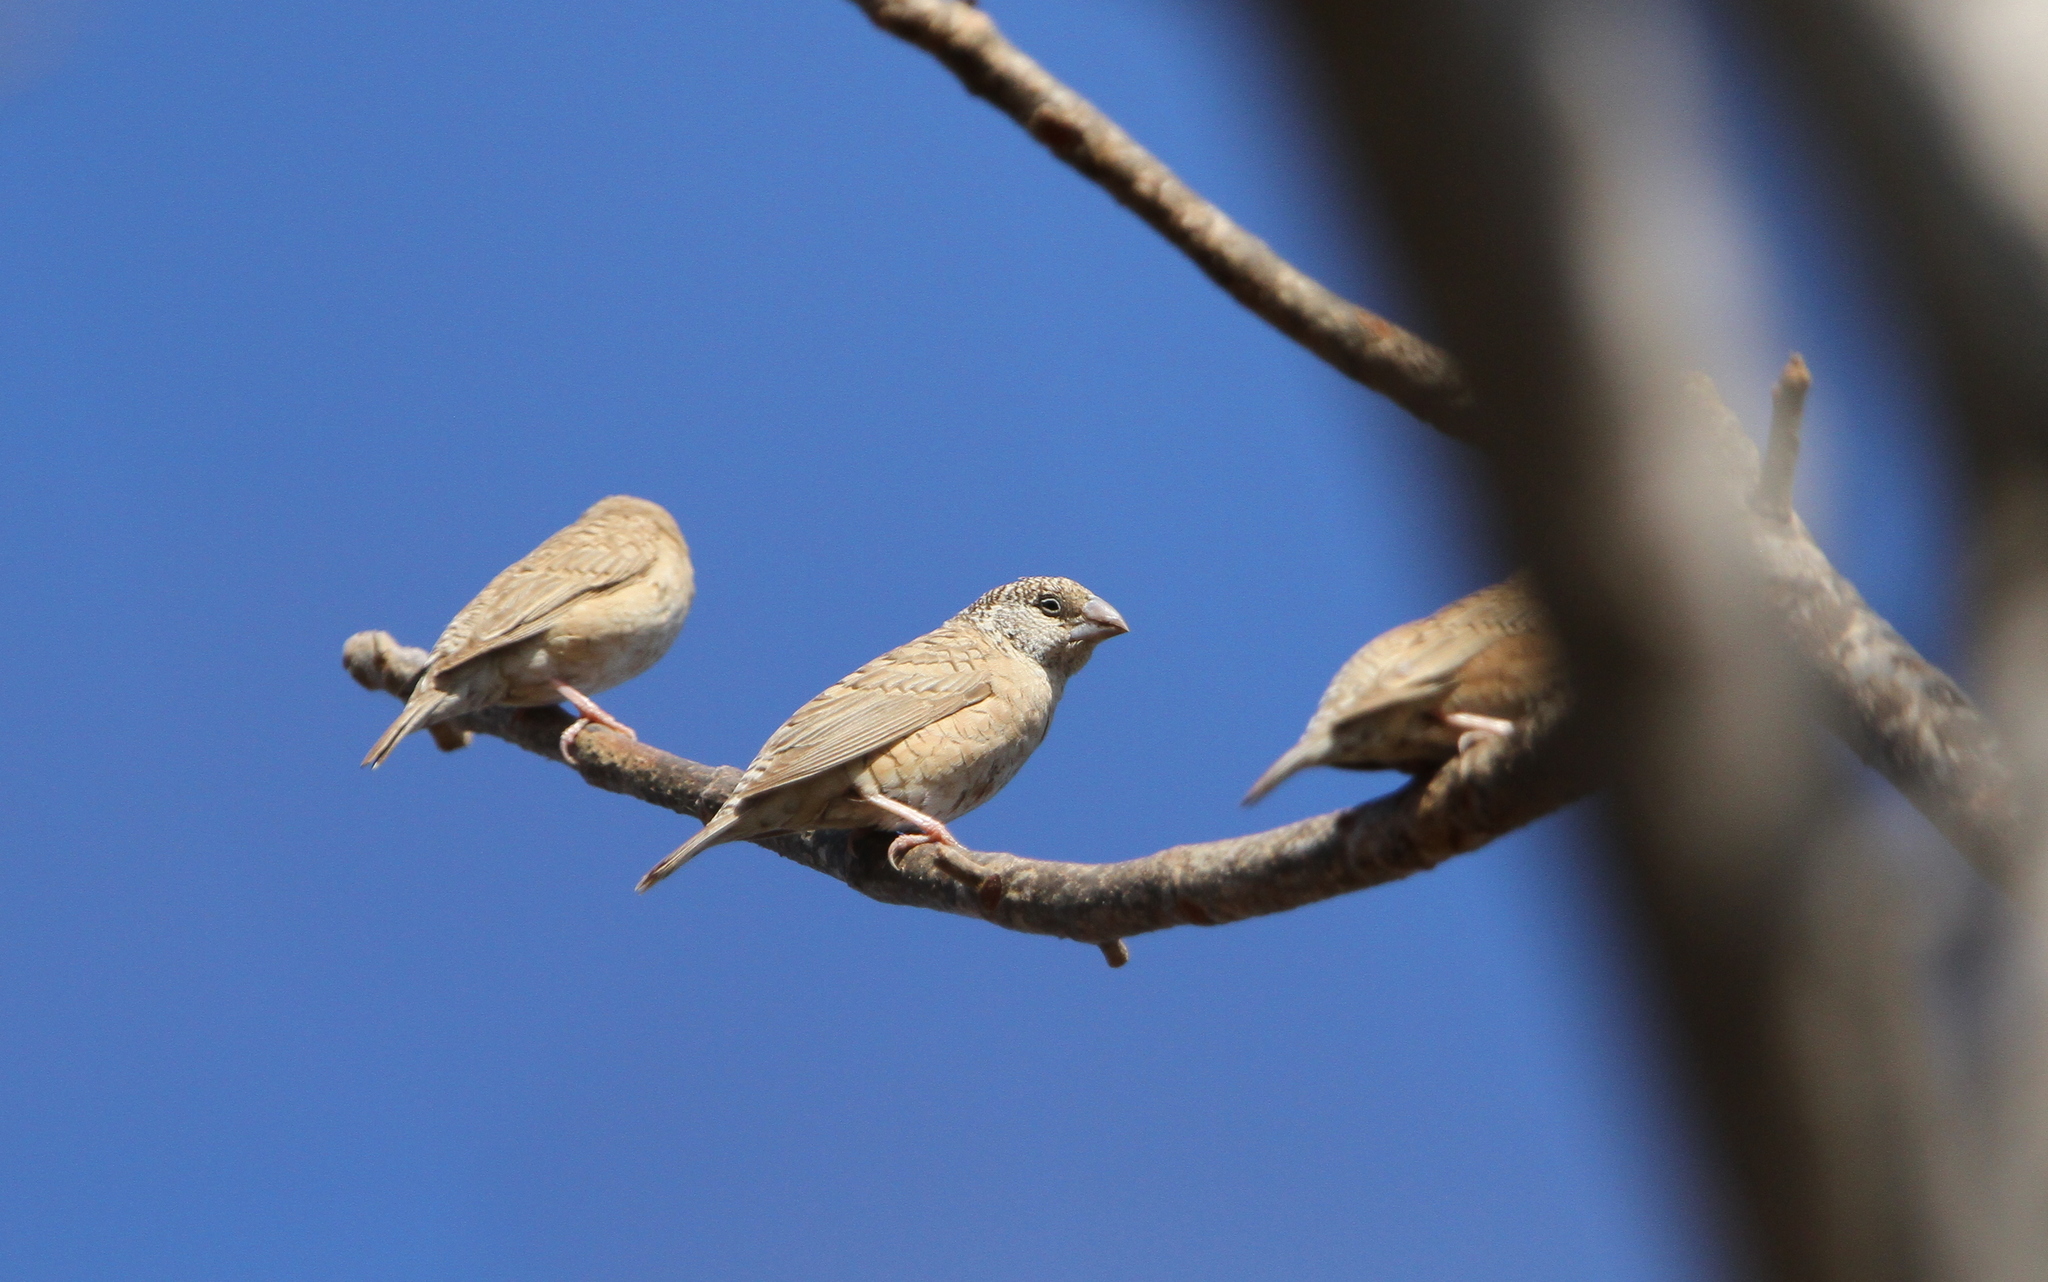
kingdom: Animalia
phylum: Chordata
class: Aves
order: Passeriformes
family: Estrildidae
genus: Amadina
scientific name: Amadina fasciata
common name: Cut-throat finch
